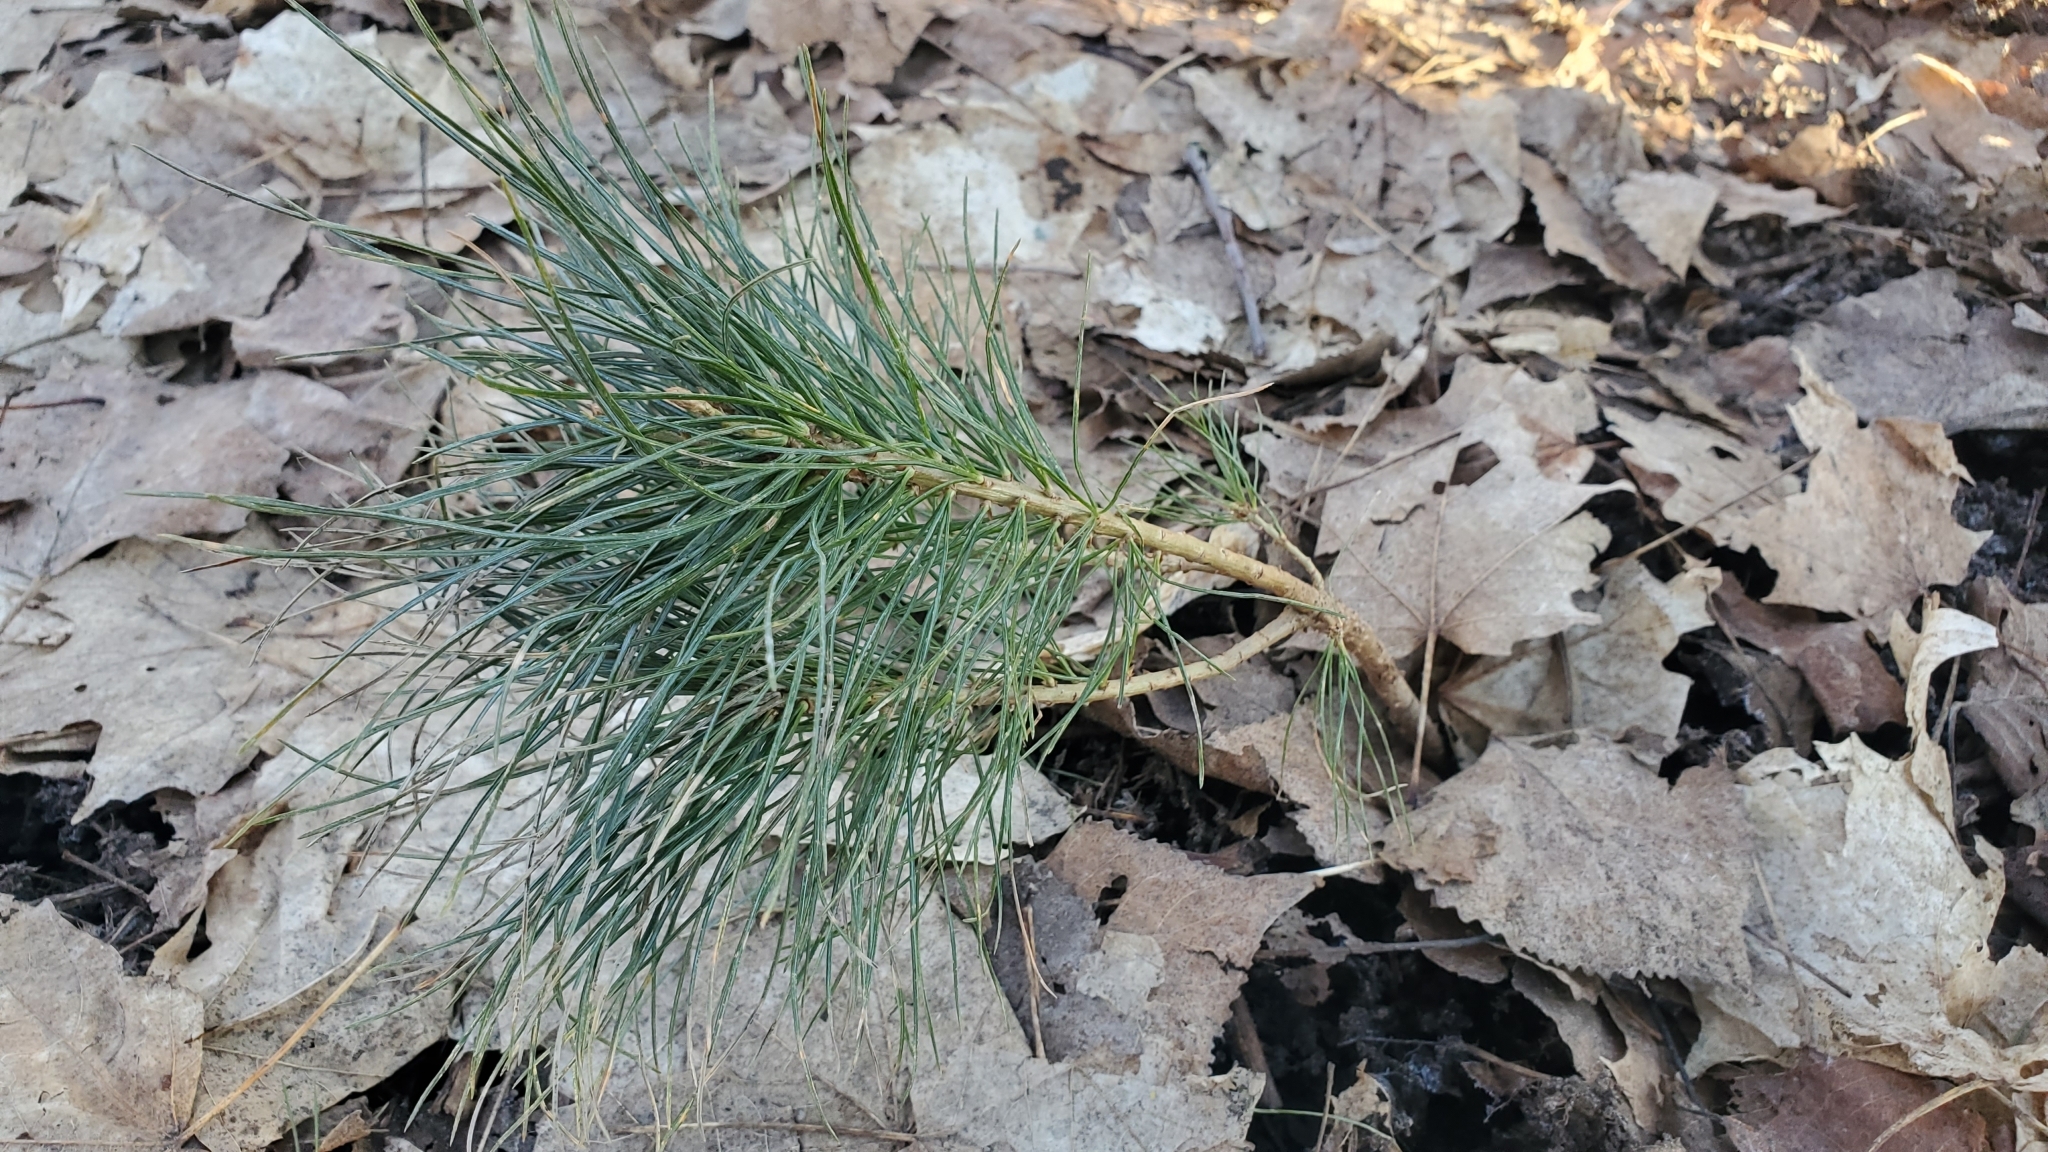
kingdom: Plantae
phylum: Tracheophyta
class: Pinopsida
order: Pinales
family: Pinaceae
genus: Pinus
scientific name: Pinus strobus
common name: Weymouth pine
